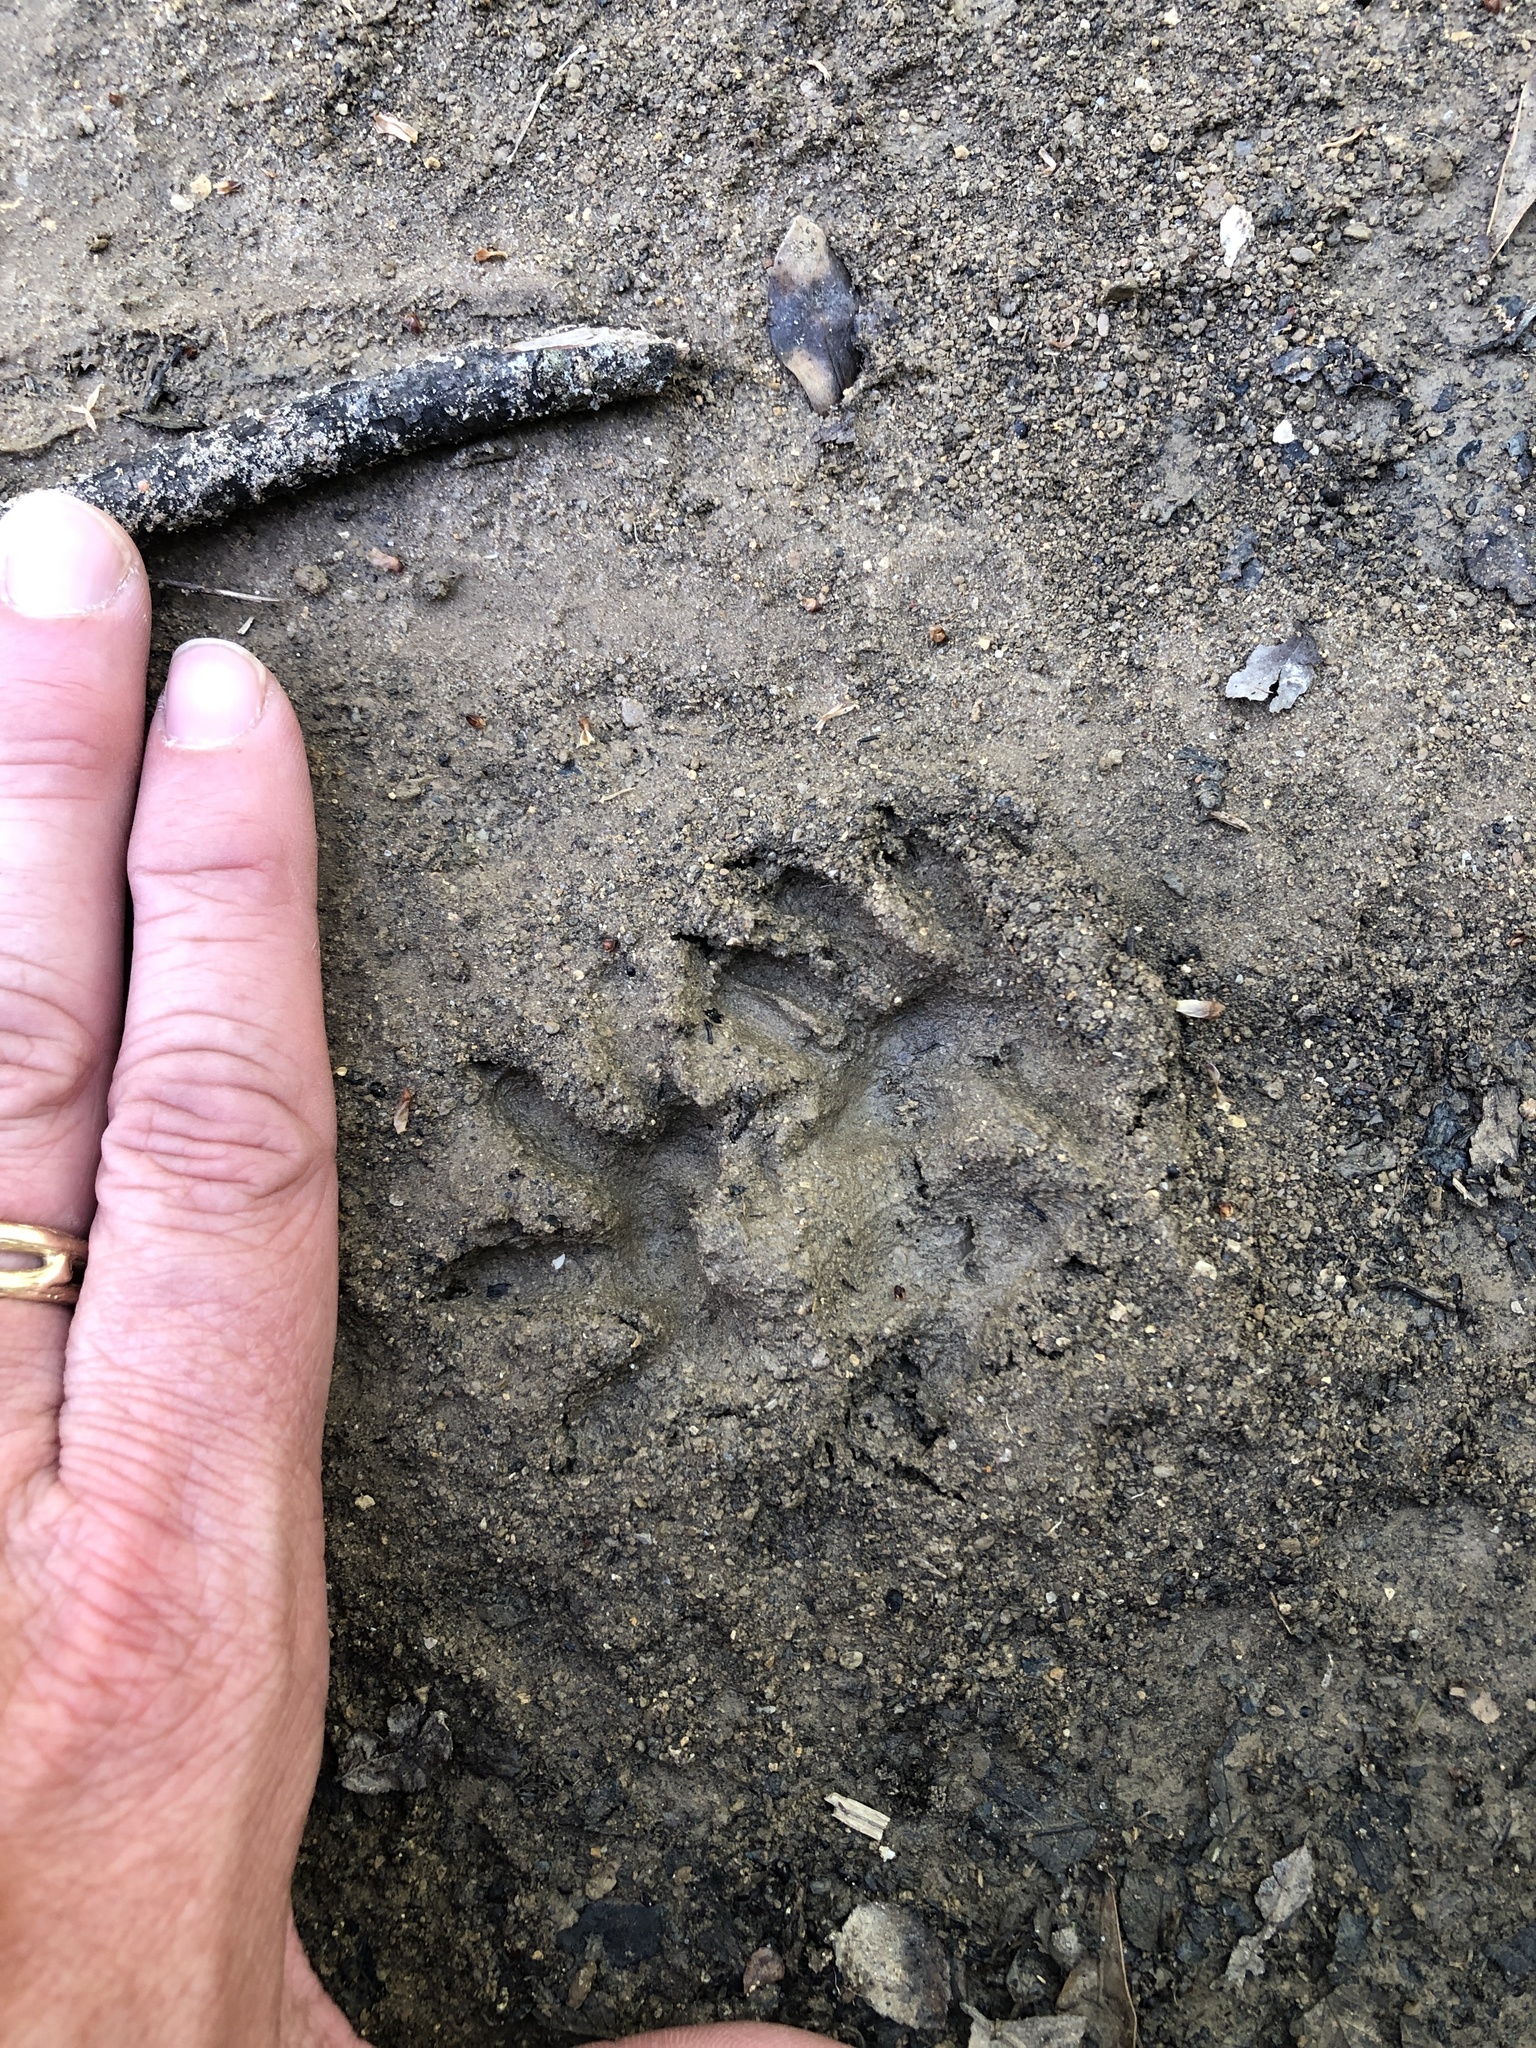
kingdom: Animalia
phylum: Chordata
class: Mammalia
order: Didelphimorphia
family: Didelphidae
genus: Didelphis
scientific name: Didelphis virginiana
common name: Virginia opossum
